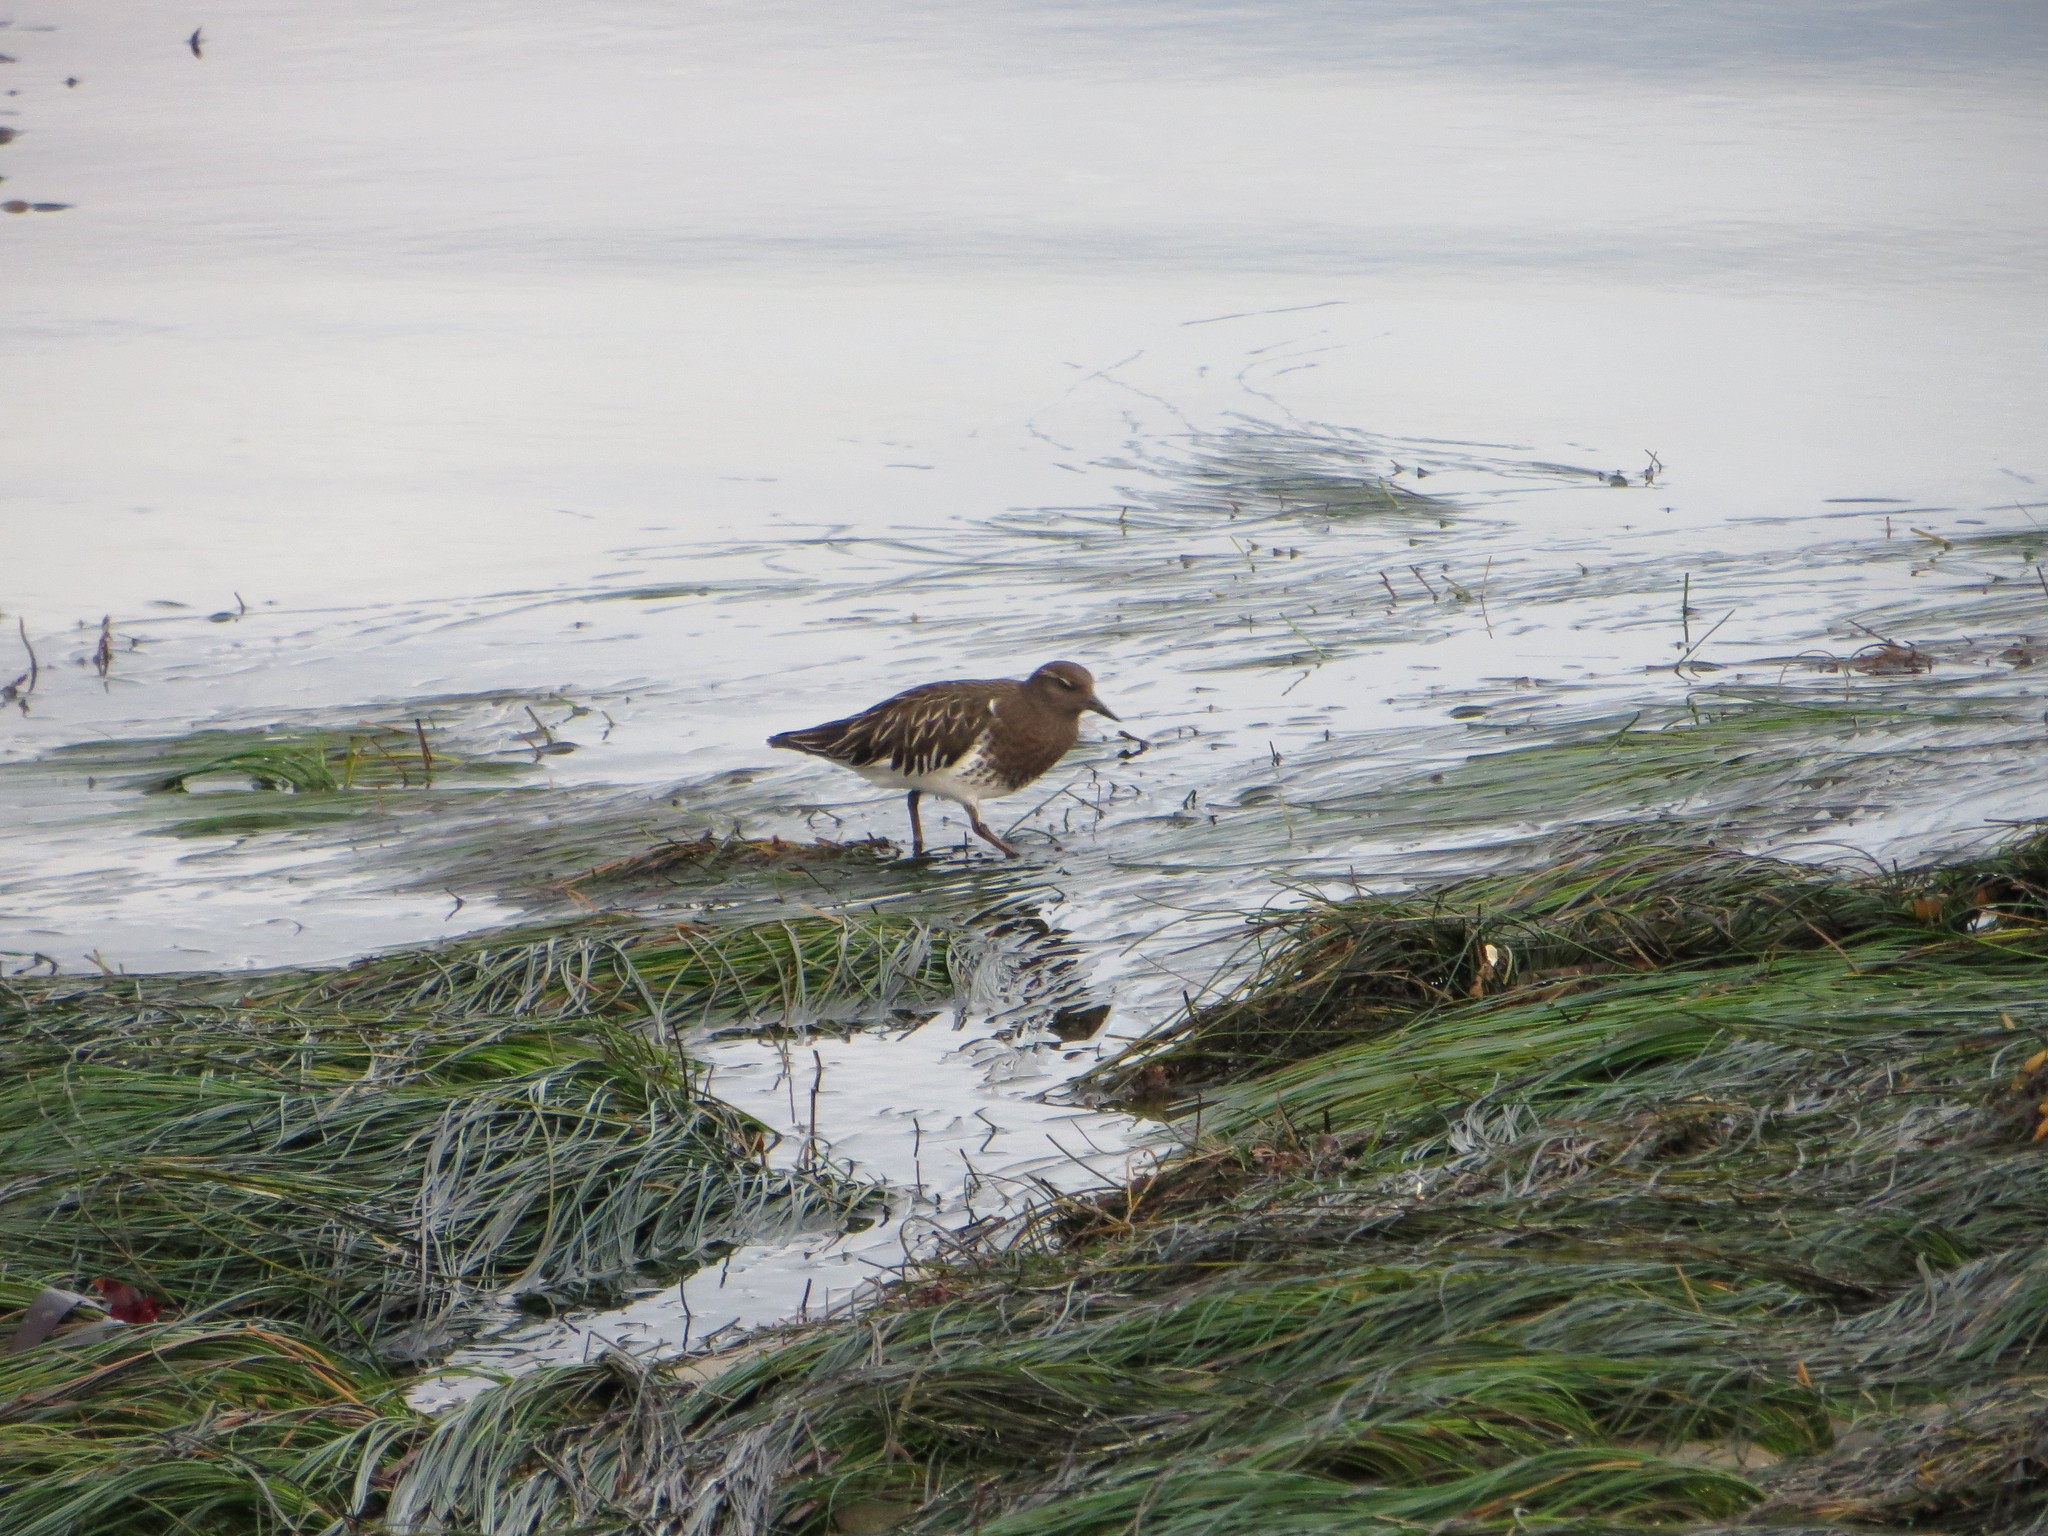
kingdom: Animalia
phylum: Chordata
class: Aves
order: Charadriiformes
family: Scolopacidae
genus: Arenaria
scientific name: Arenaria melanocephala
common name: Black turnstone
